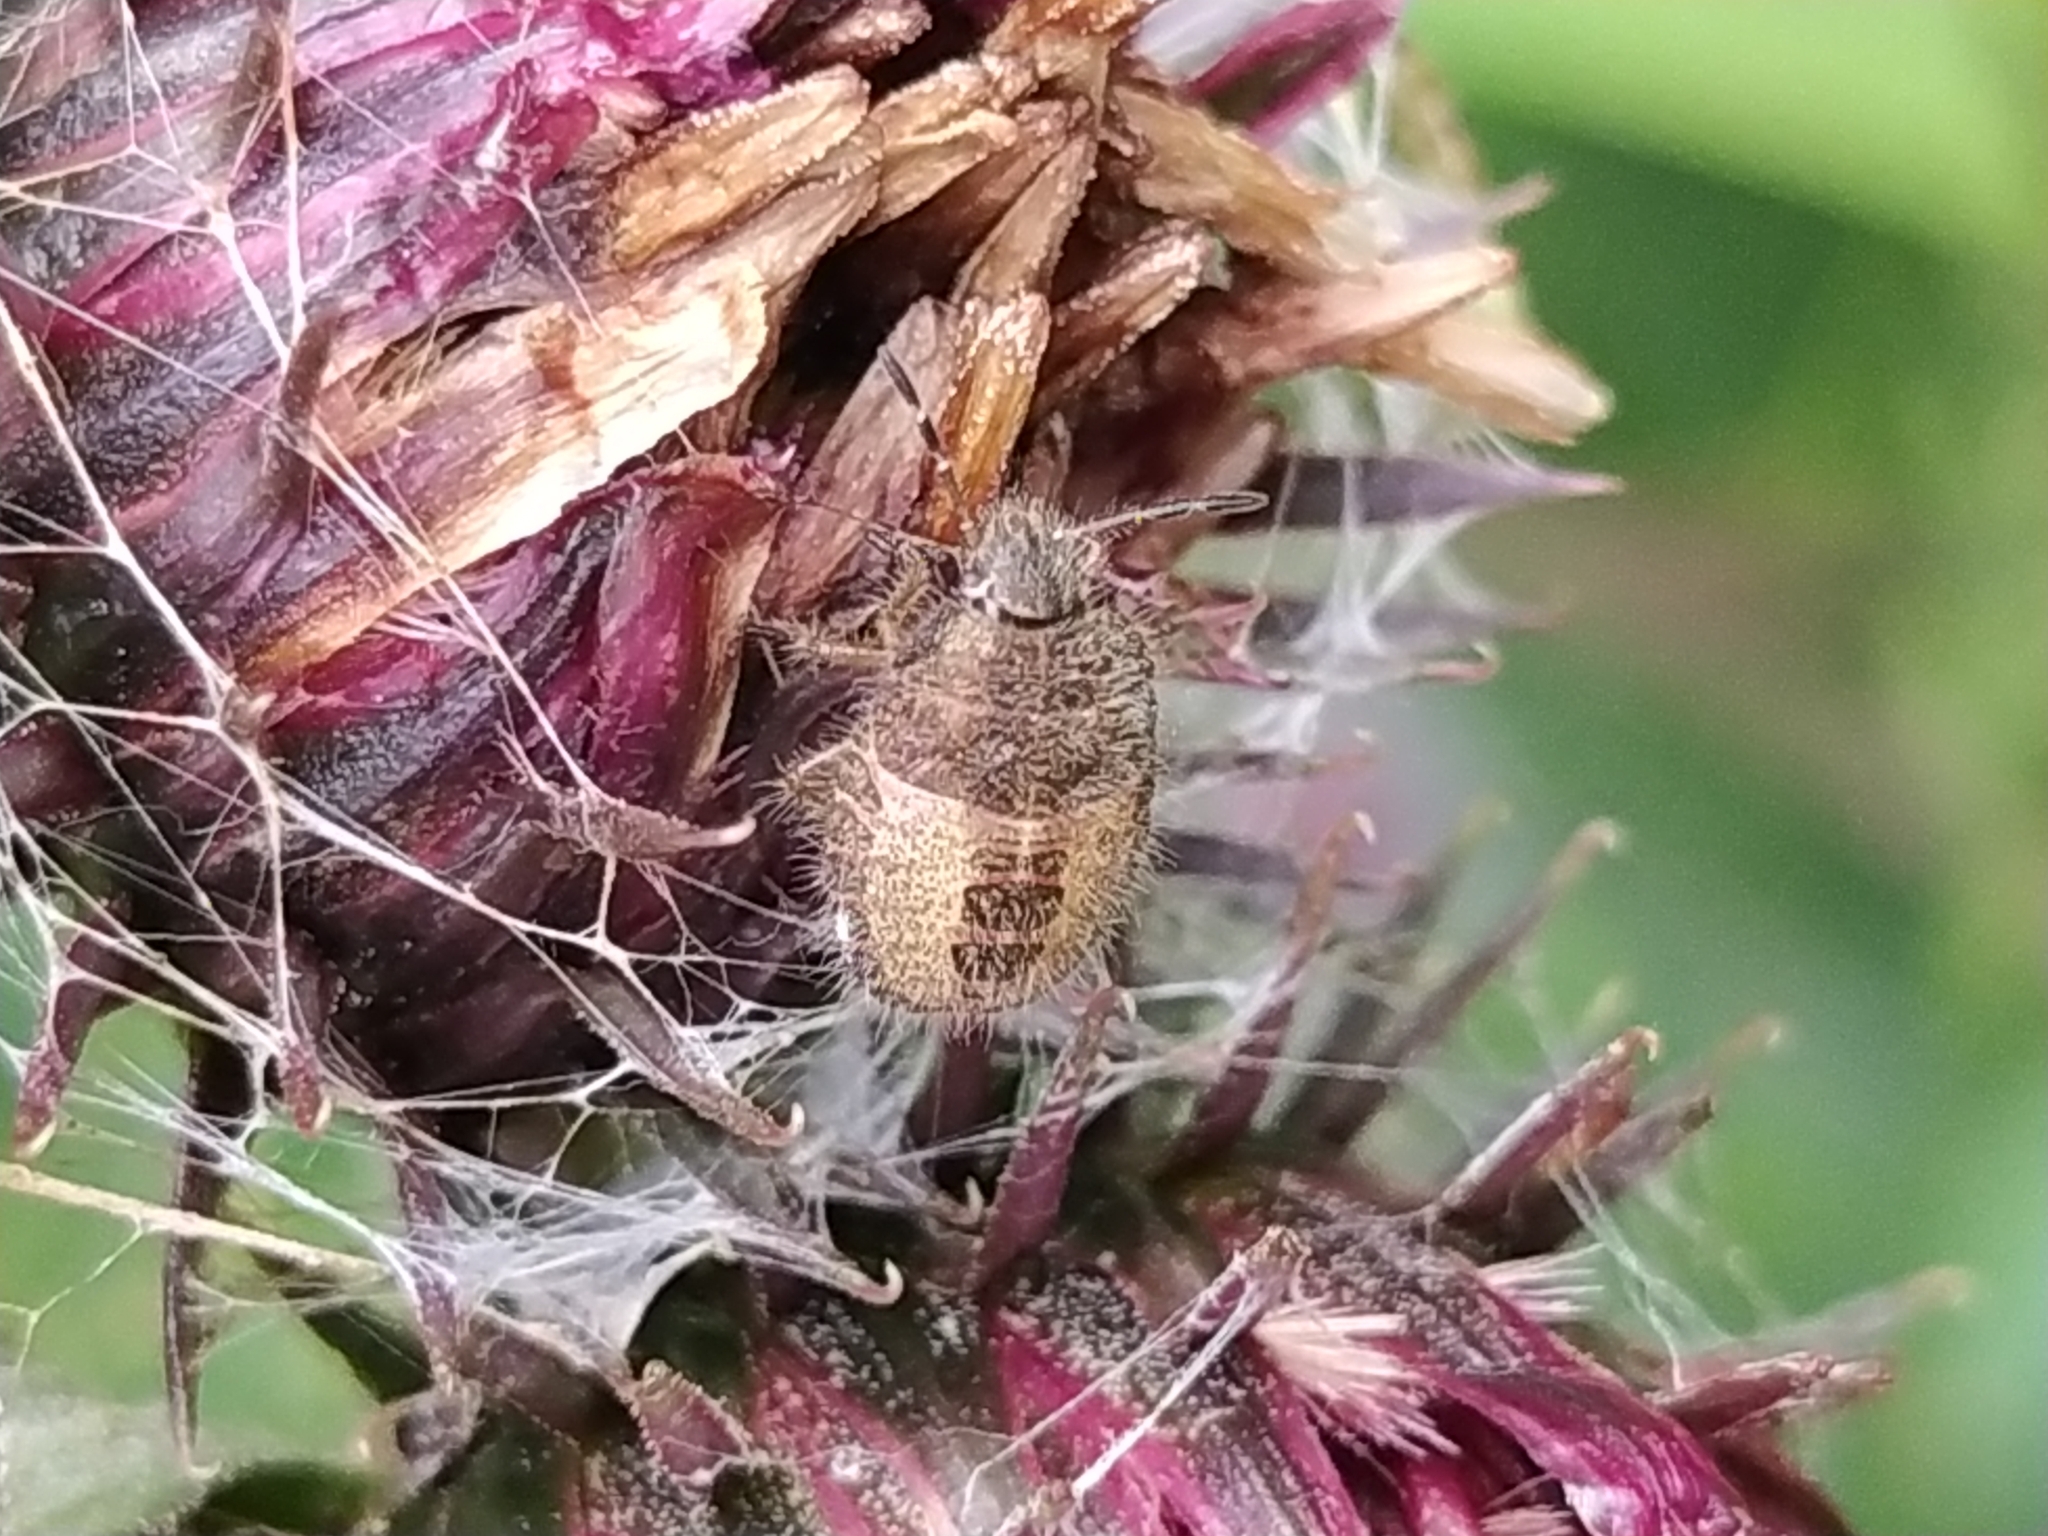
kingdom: Animalia
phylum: Arthropoda
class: Insecta
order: Hemiptera
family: Pentatomidae
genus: Dolycoris
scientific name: Dolycoris baccarum
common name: Sloe bug
